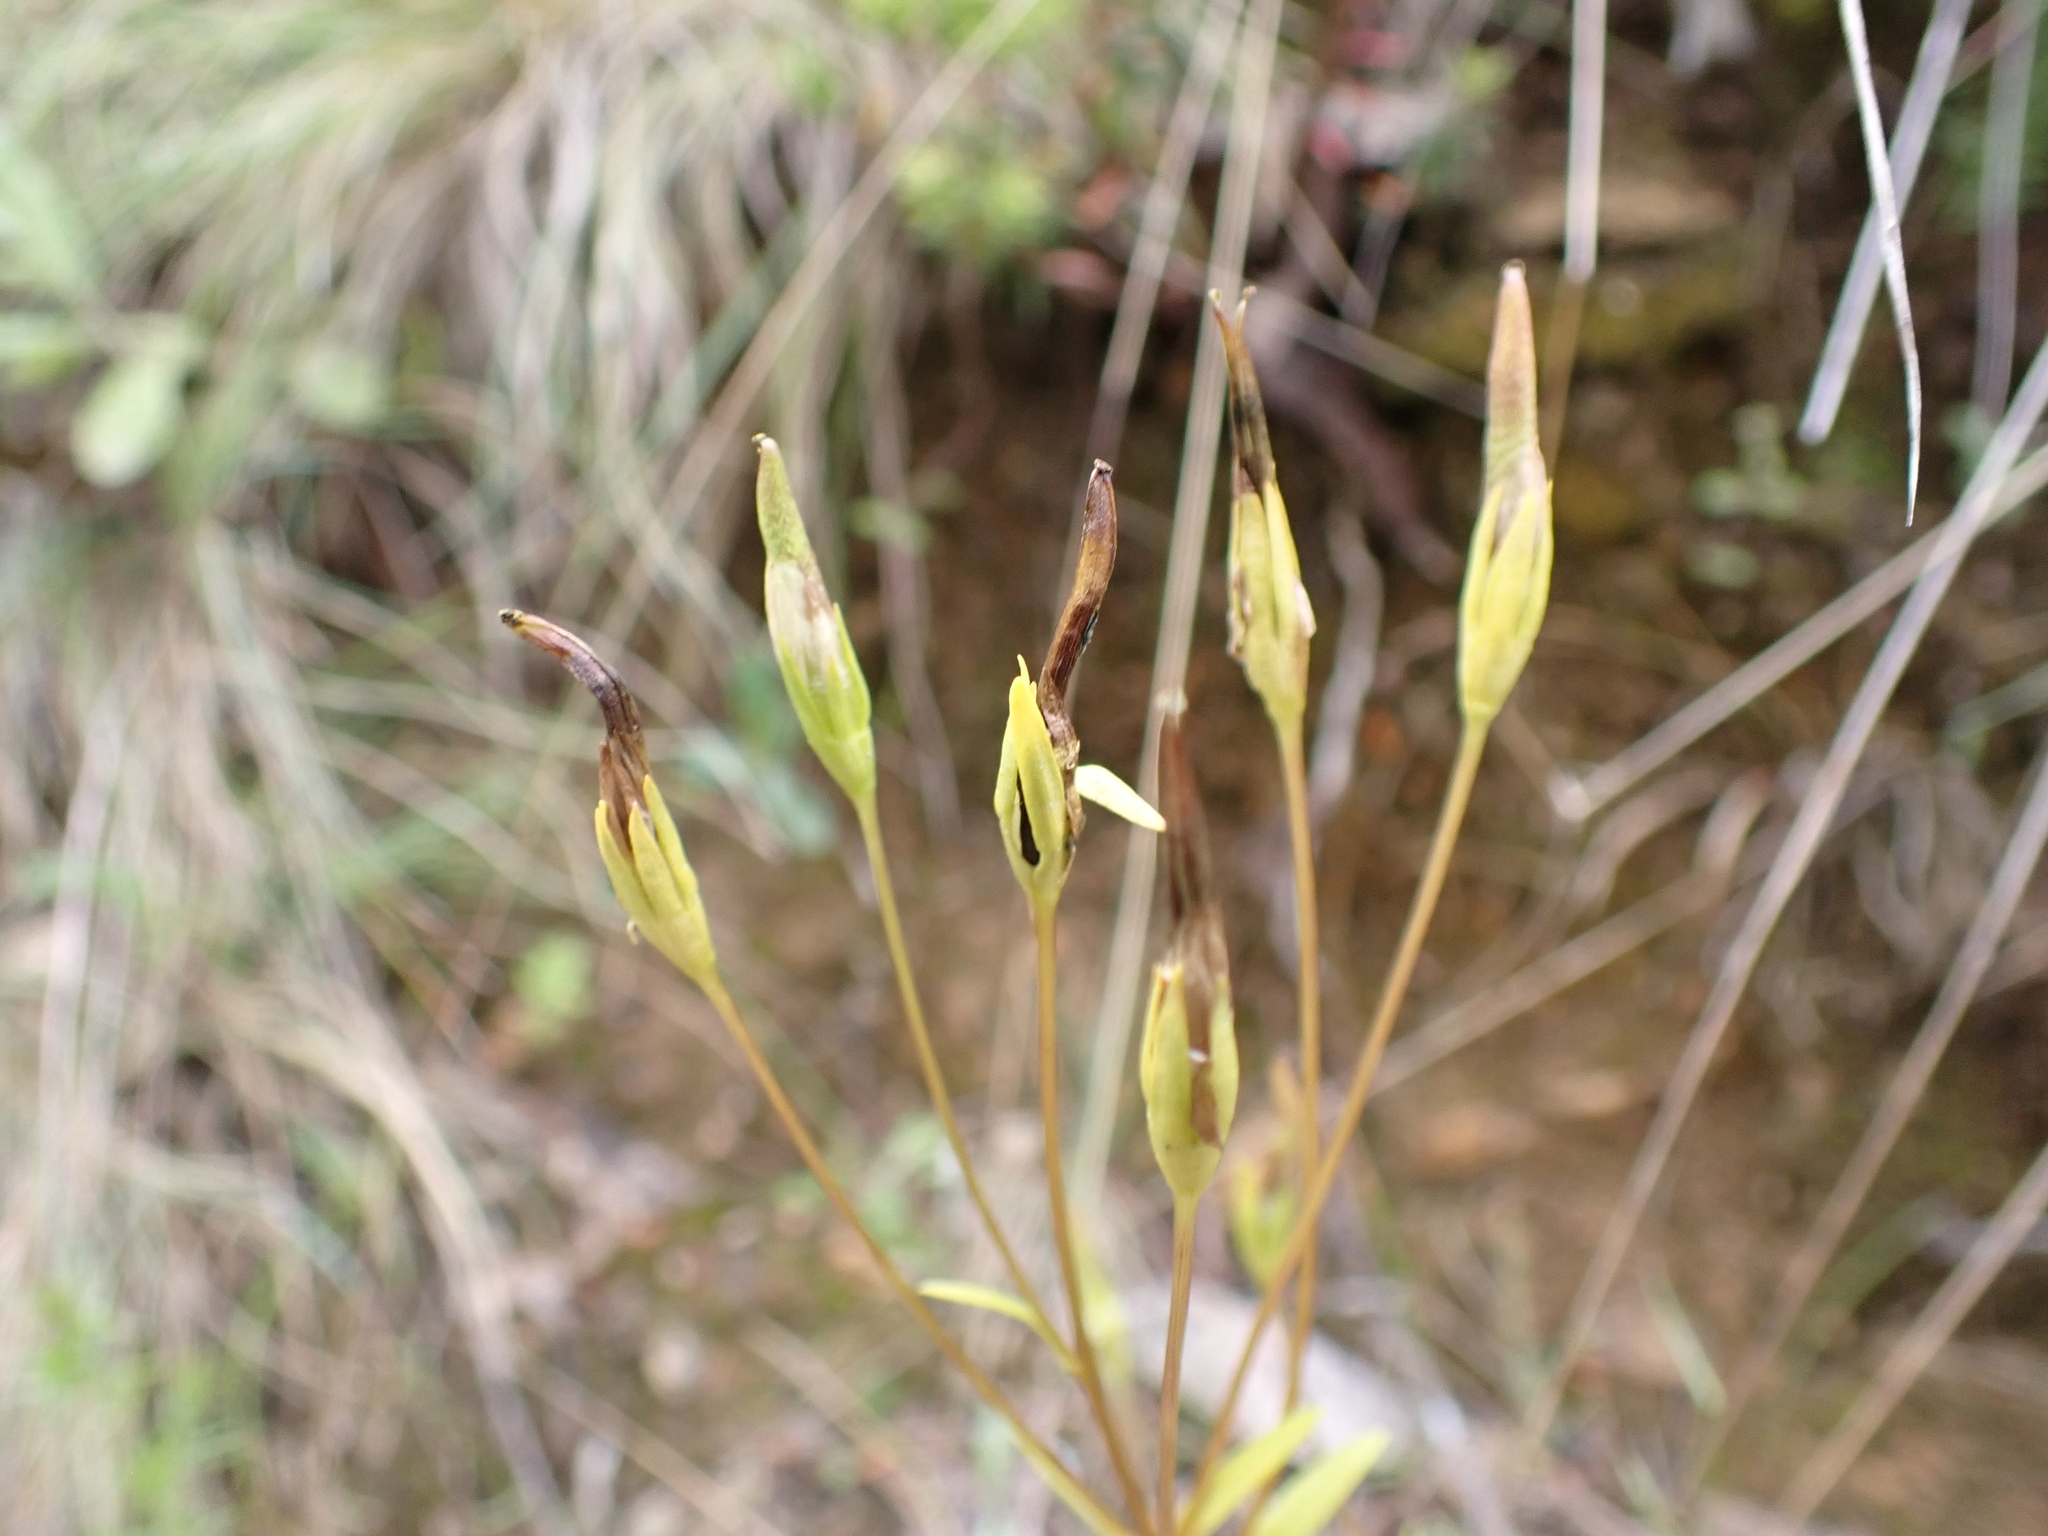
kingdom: Plantae
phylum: Tracheophyta
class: Magnoliopsida
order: Gentianales
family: Gentianaceae
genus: Gentianella
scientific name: Gentianella polysperes
